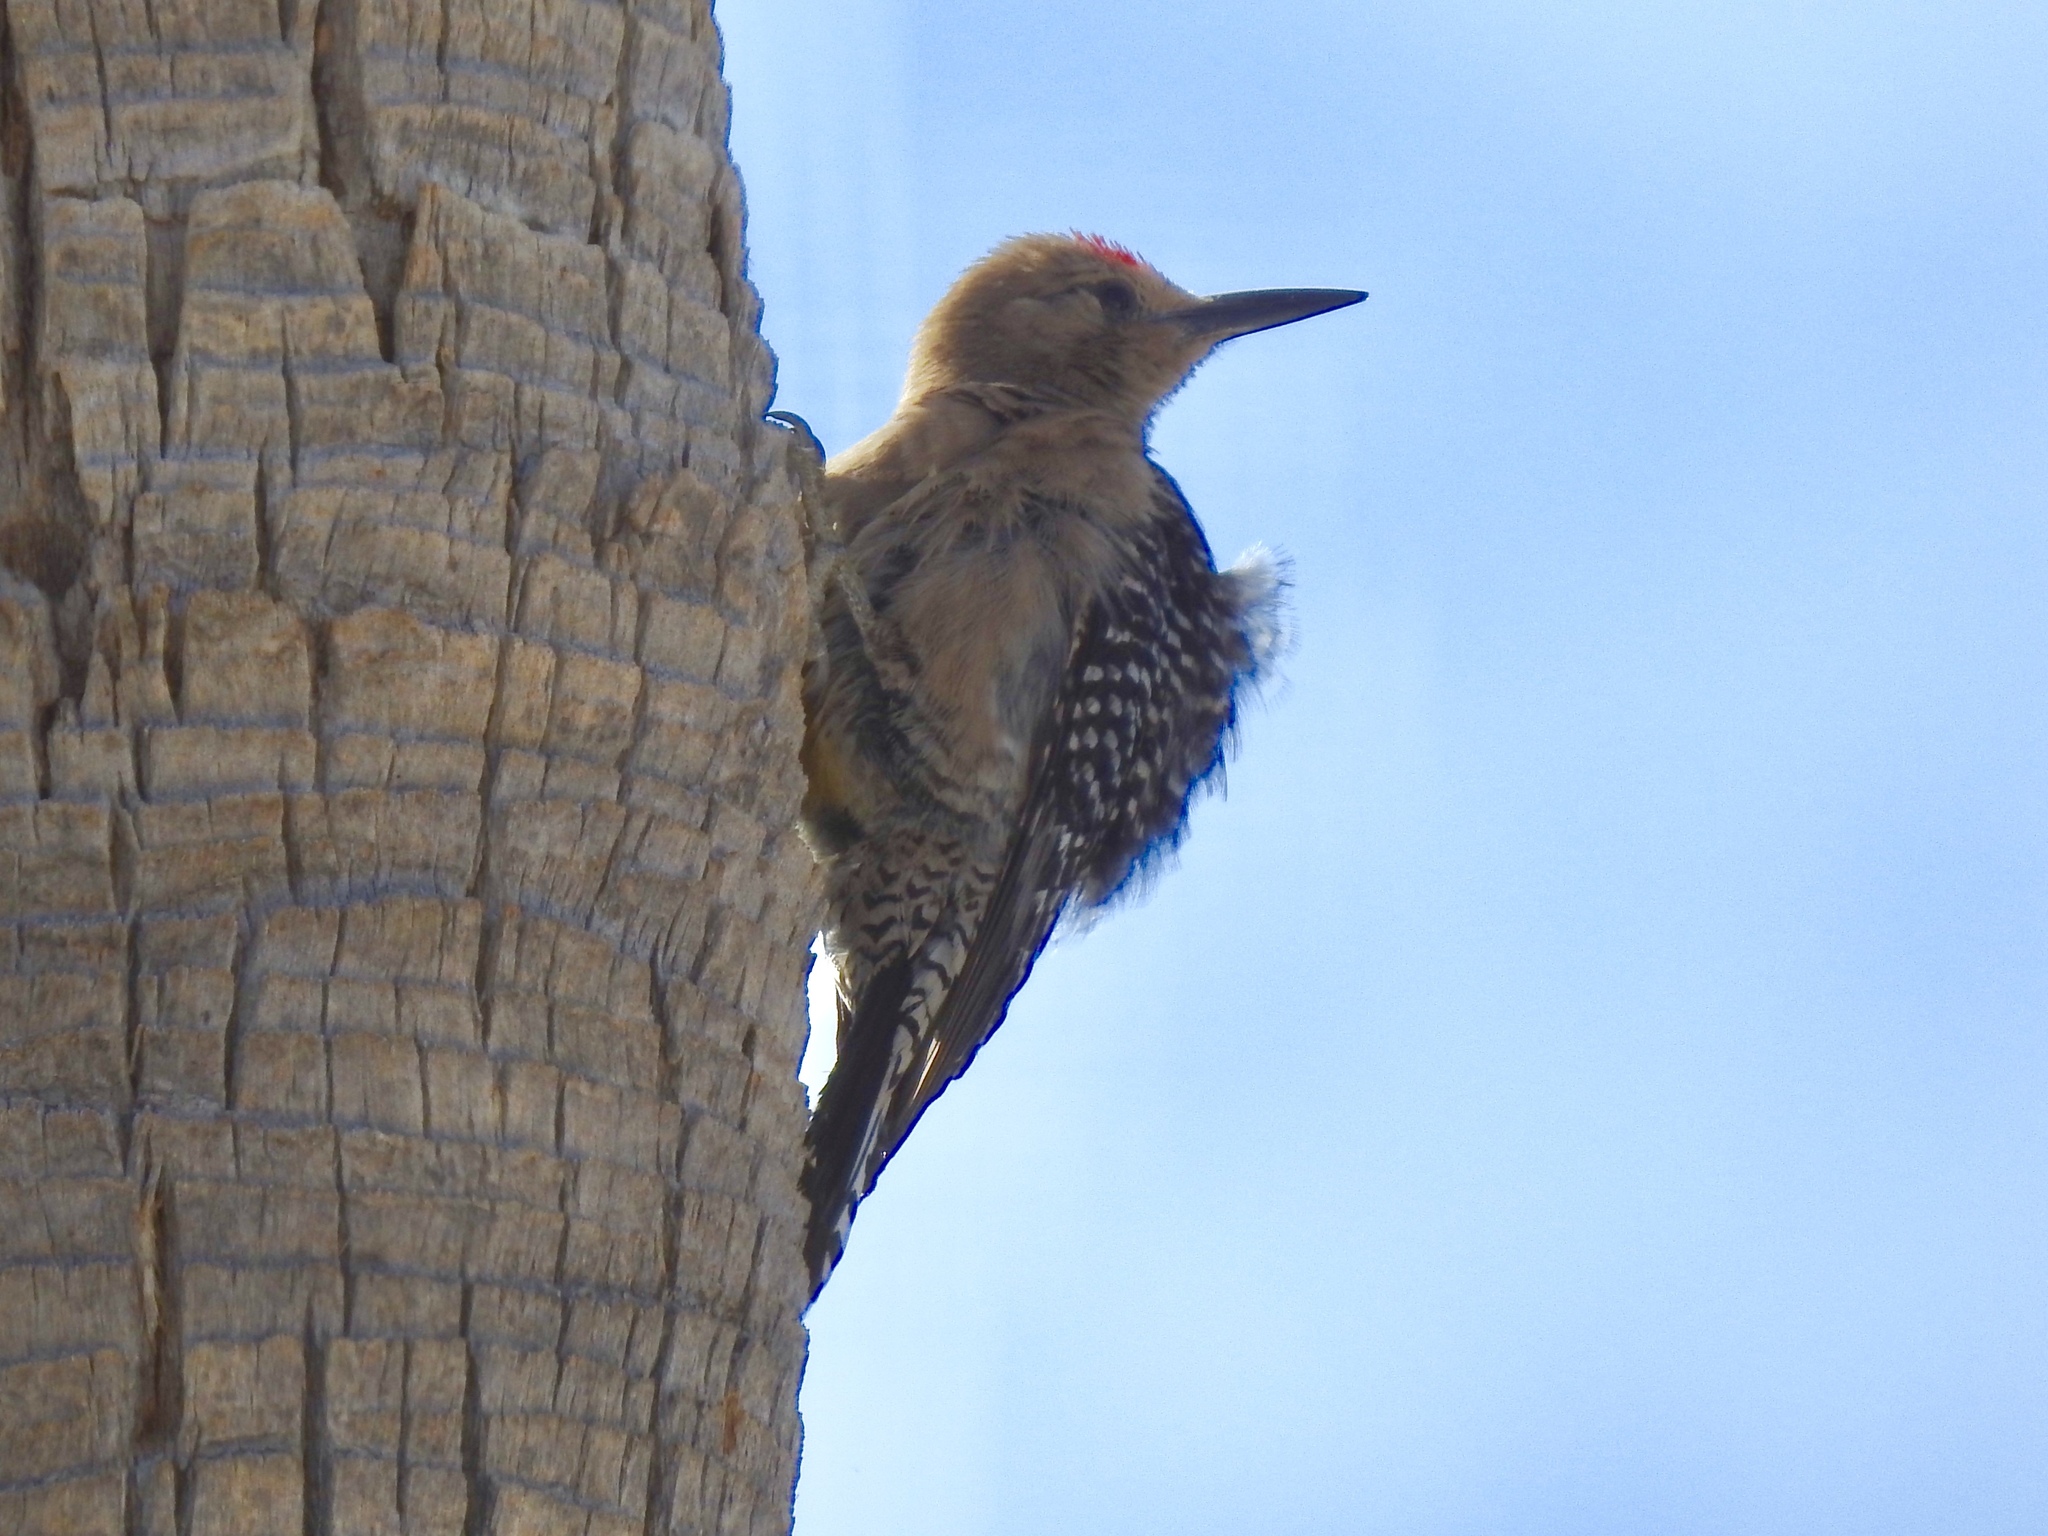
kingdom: Animalia
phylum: Chordata
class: Aves
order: Piciformes
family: Picidae
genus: Melanerpes
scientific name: Melanerpes uropygialis
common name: Gila woodpecker
